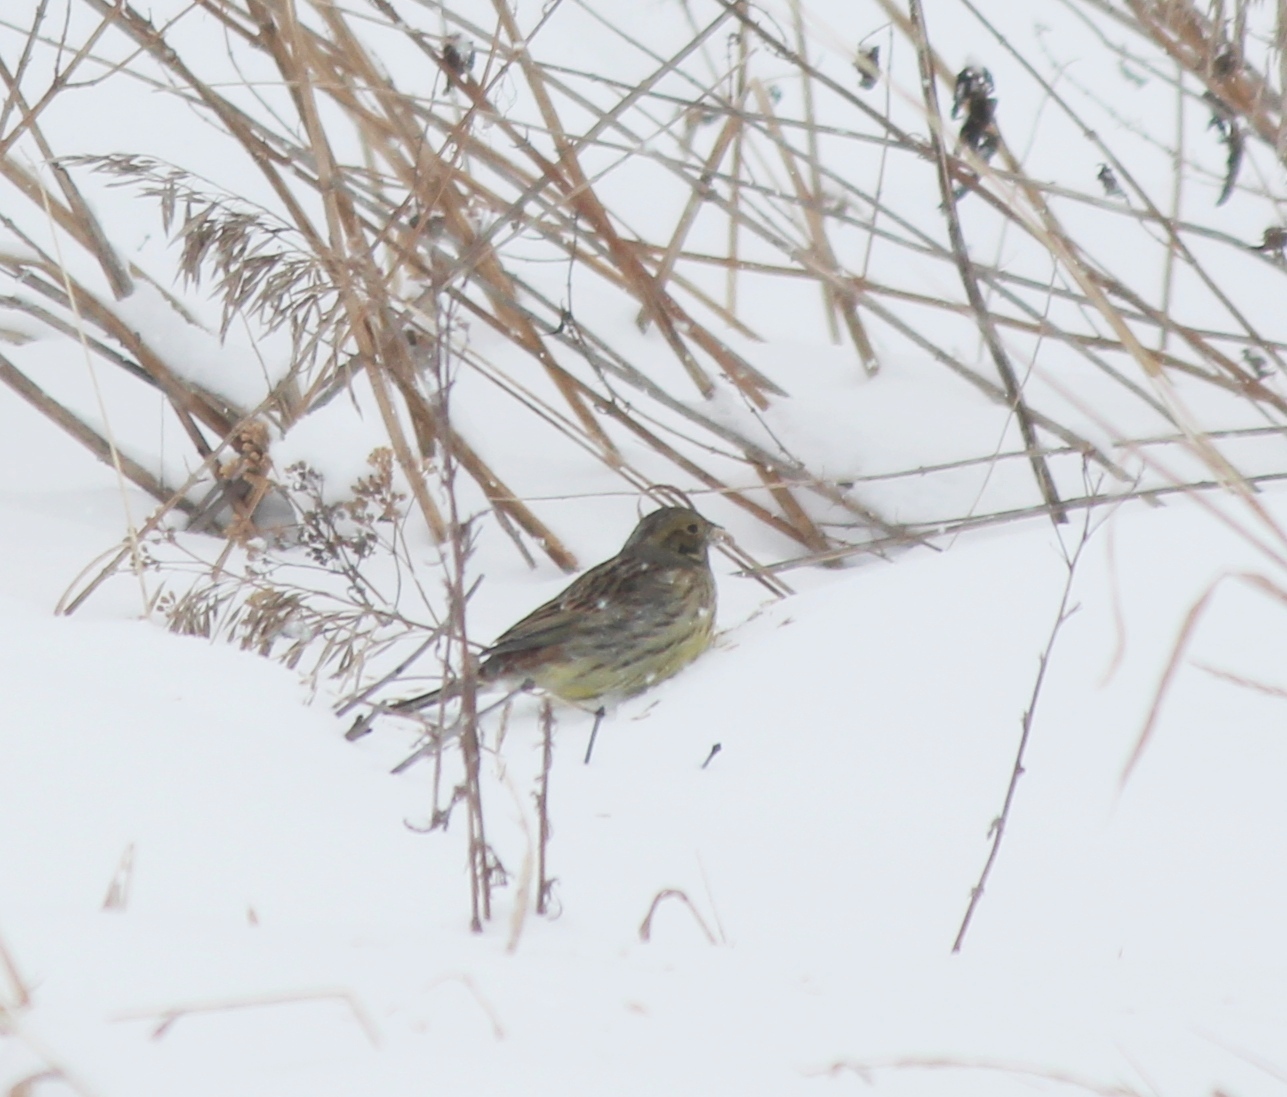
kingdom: Animalia
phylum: Chordata
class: Aves
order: Passeriformes
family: Emberizidae
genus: Emberiza
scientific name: Emberiza citrinella
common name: Yellowhammer
